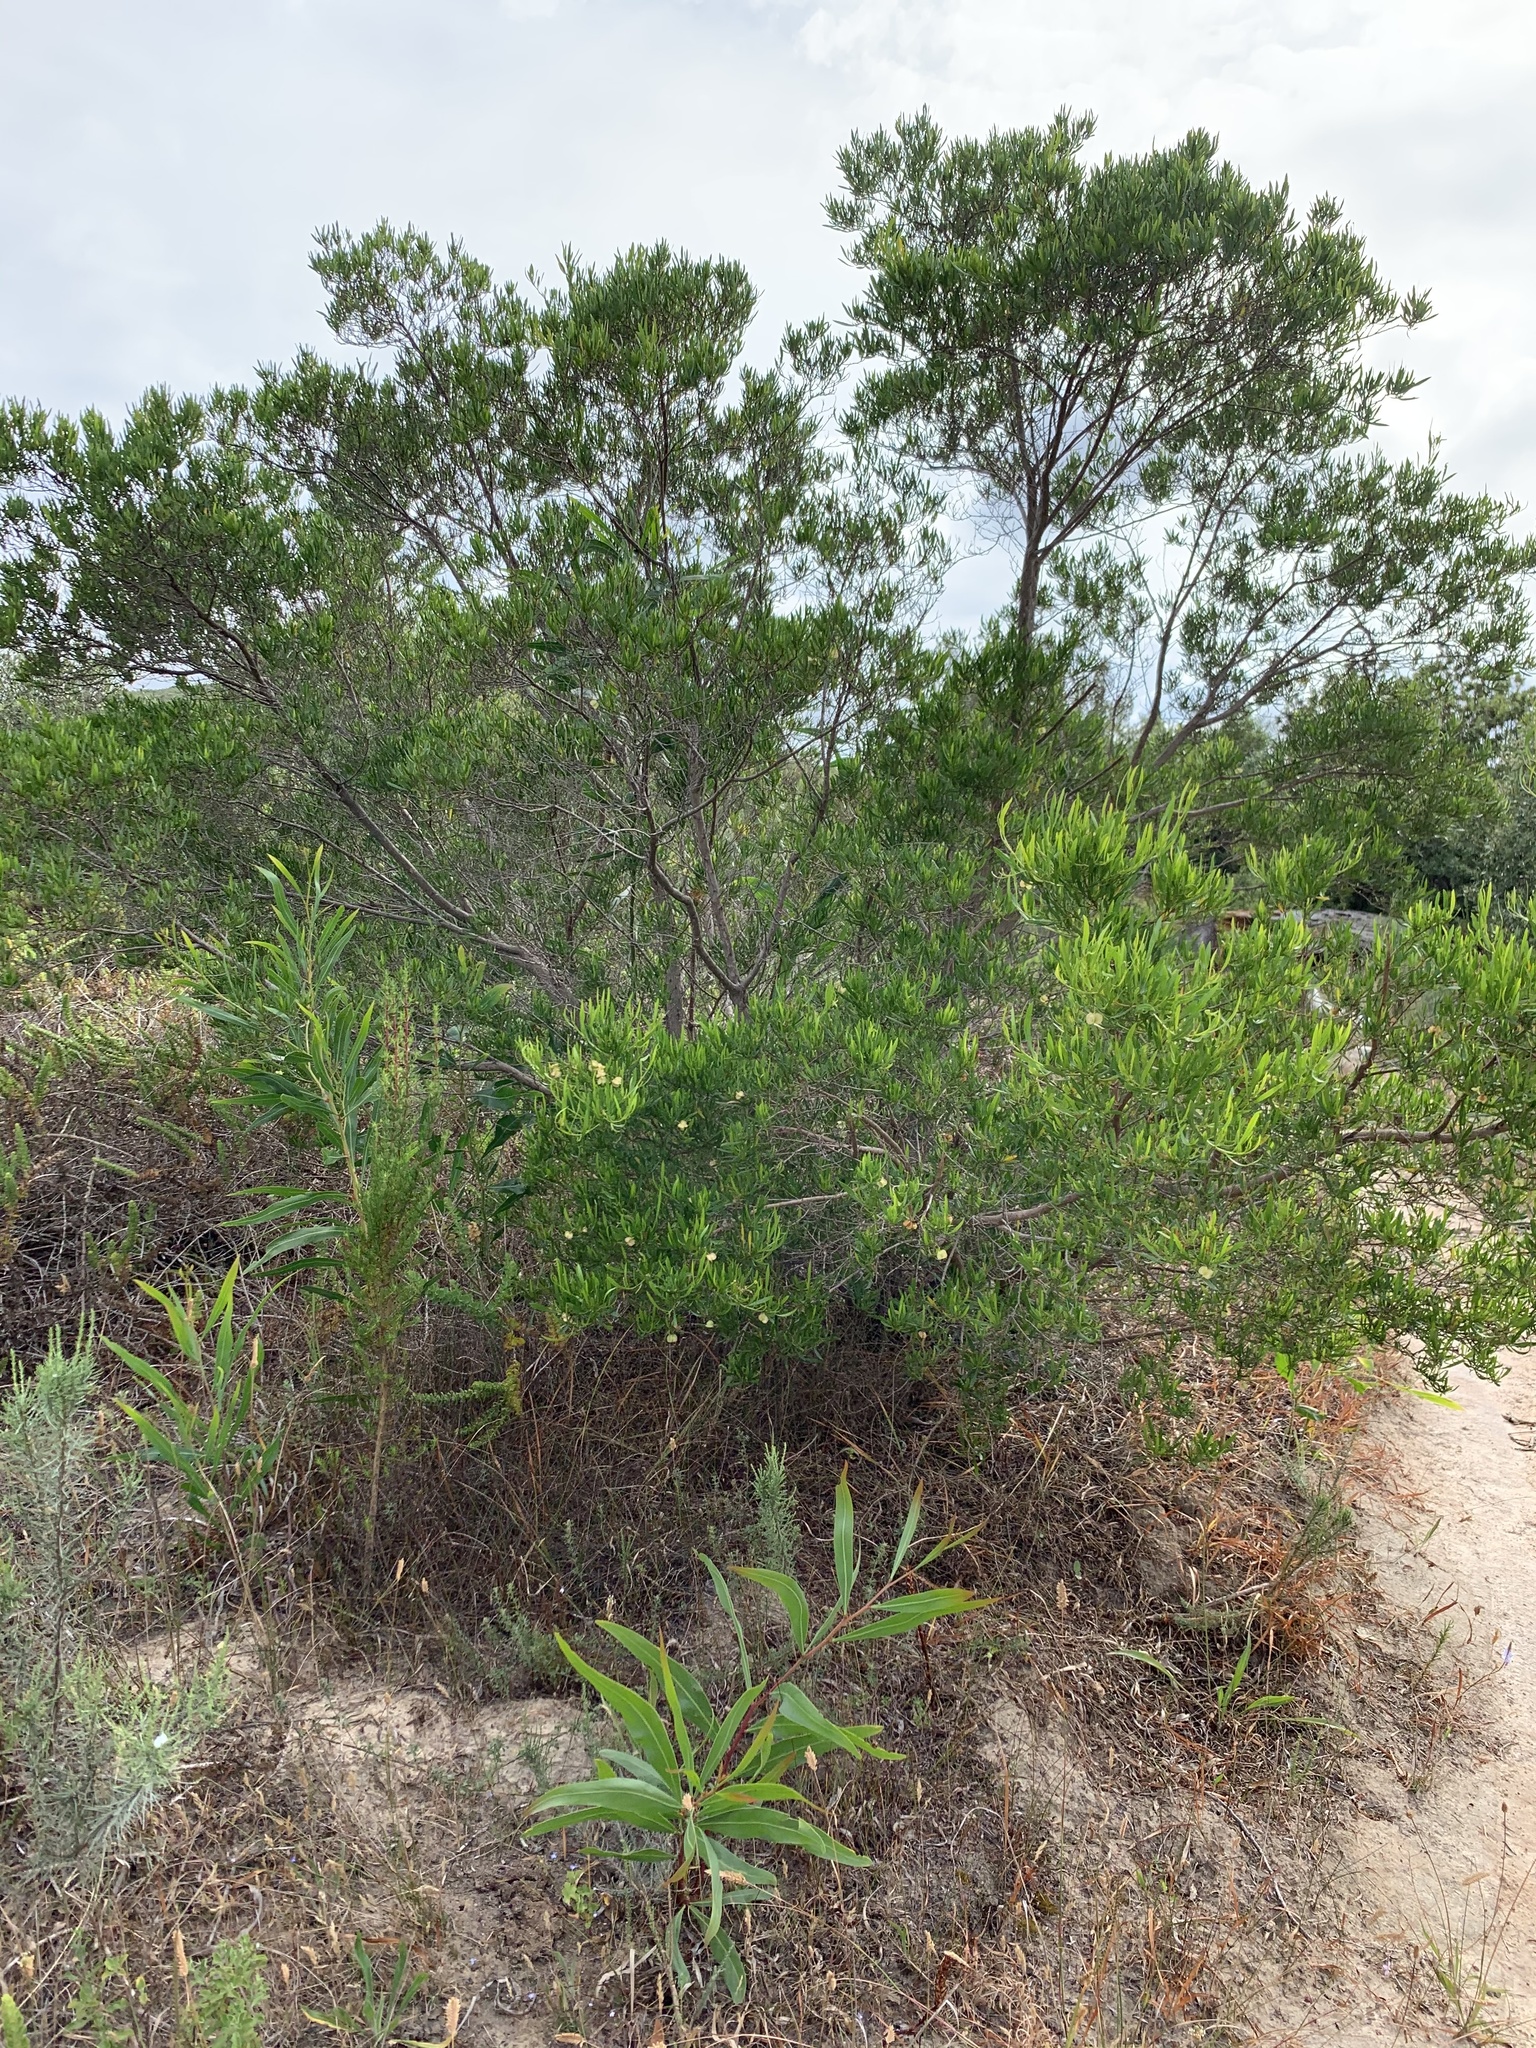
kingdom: Plantae
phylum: Tracheophyta
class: Magnoliopsida
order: Sapindales
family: Sapindaceae
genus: Dodonaea
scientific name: Dodonaea viscosa
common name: Hopbush
